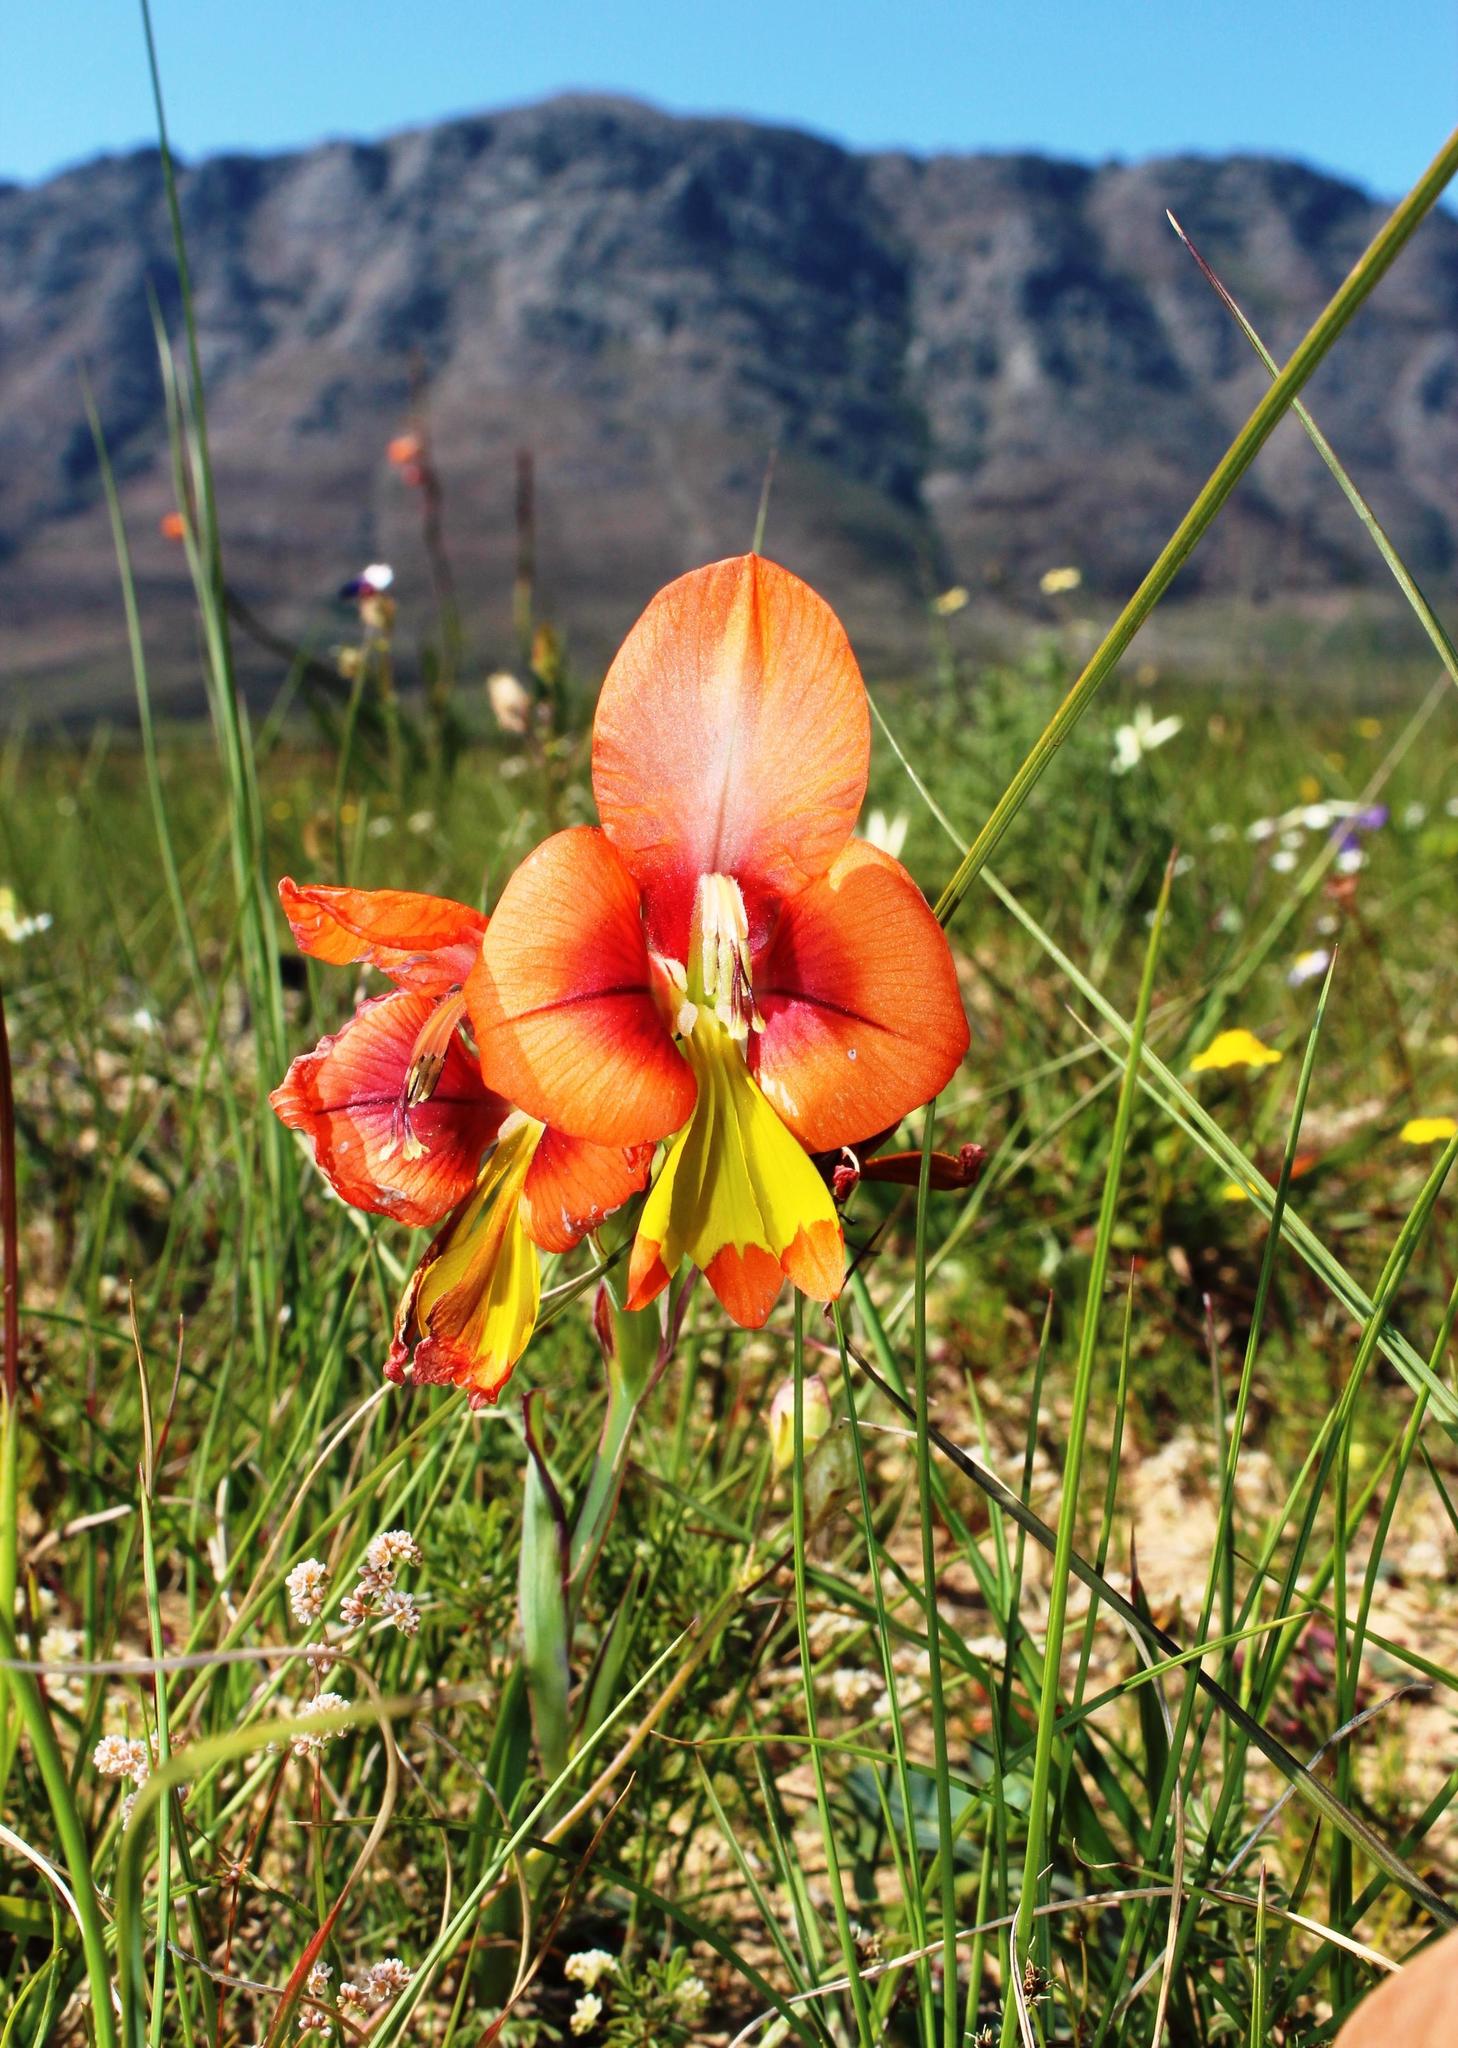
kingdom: Plantae
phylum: Tracheophyta
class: Liliopsida
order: Asparagales
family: Iridaceae
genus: Gladiolus
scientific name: Gladiolus alatus
